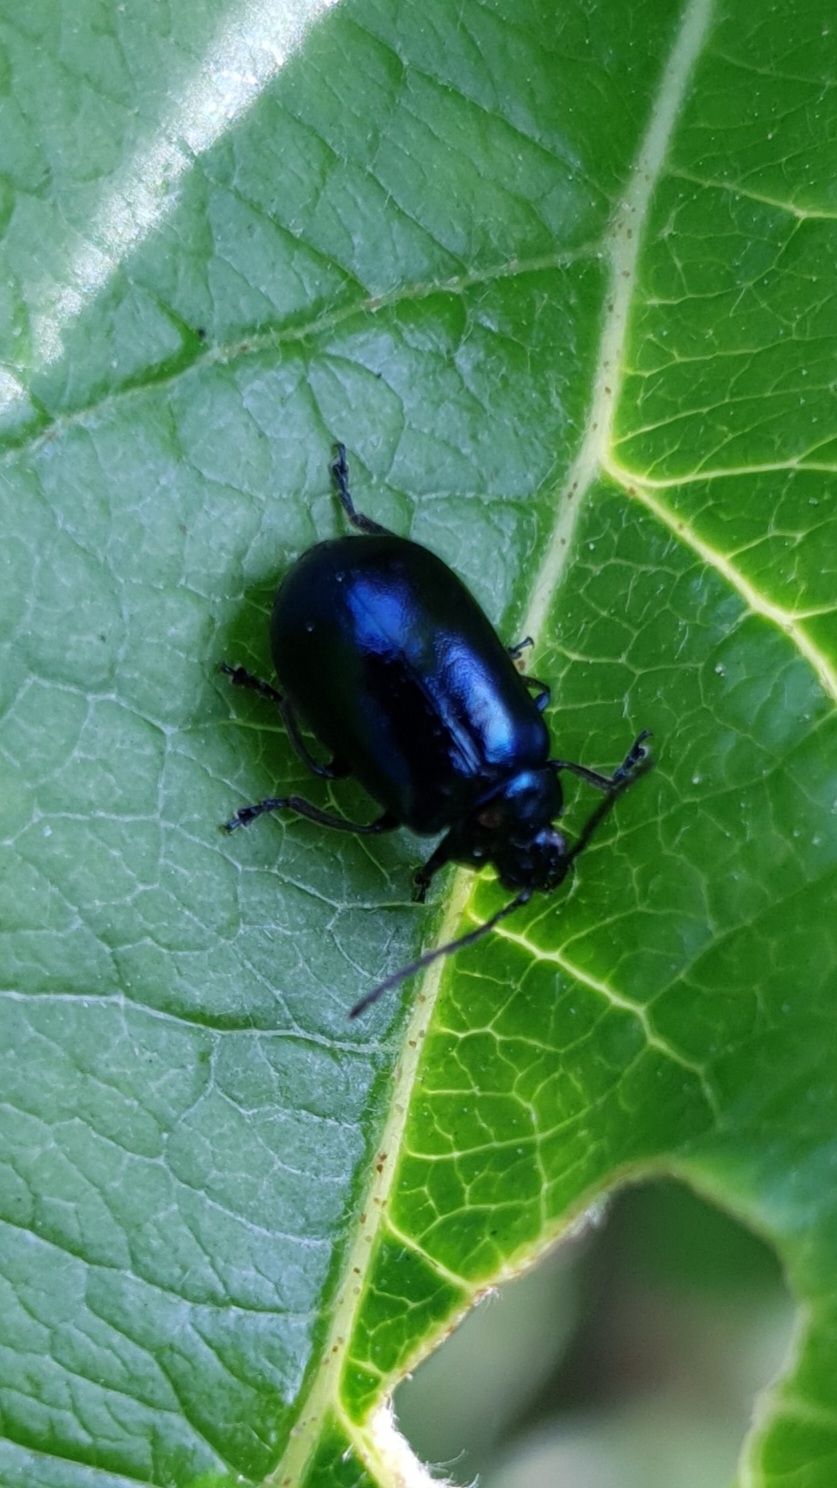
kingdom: Animalia
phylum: Arthropoda
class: Insecta
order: Coleoptera
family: Chrysomelidae
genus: Agelastica
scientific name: Agelastica alni
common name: Alder leaf beetle
